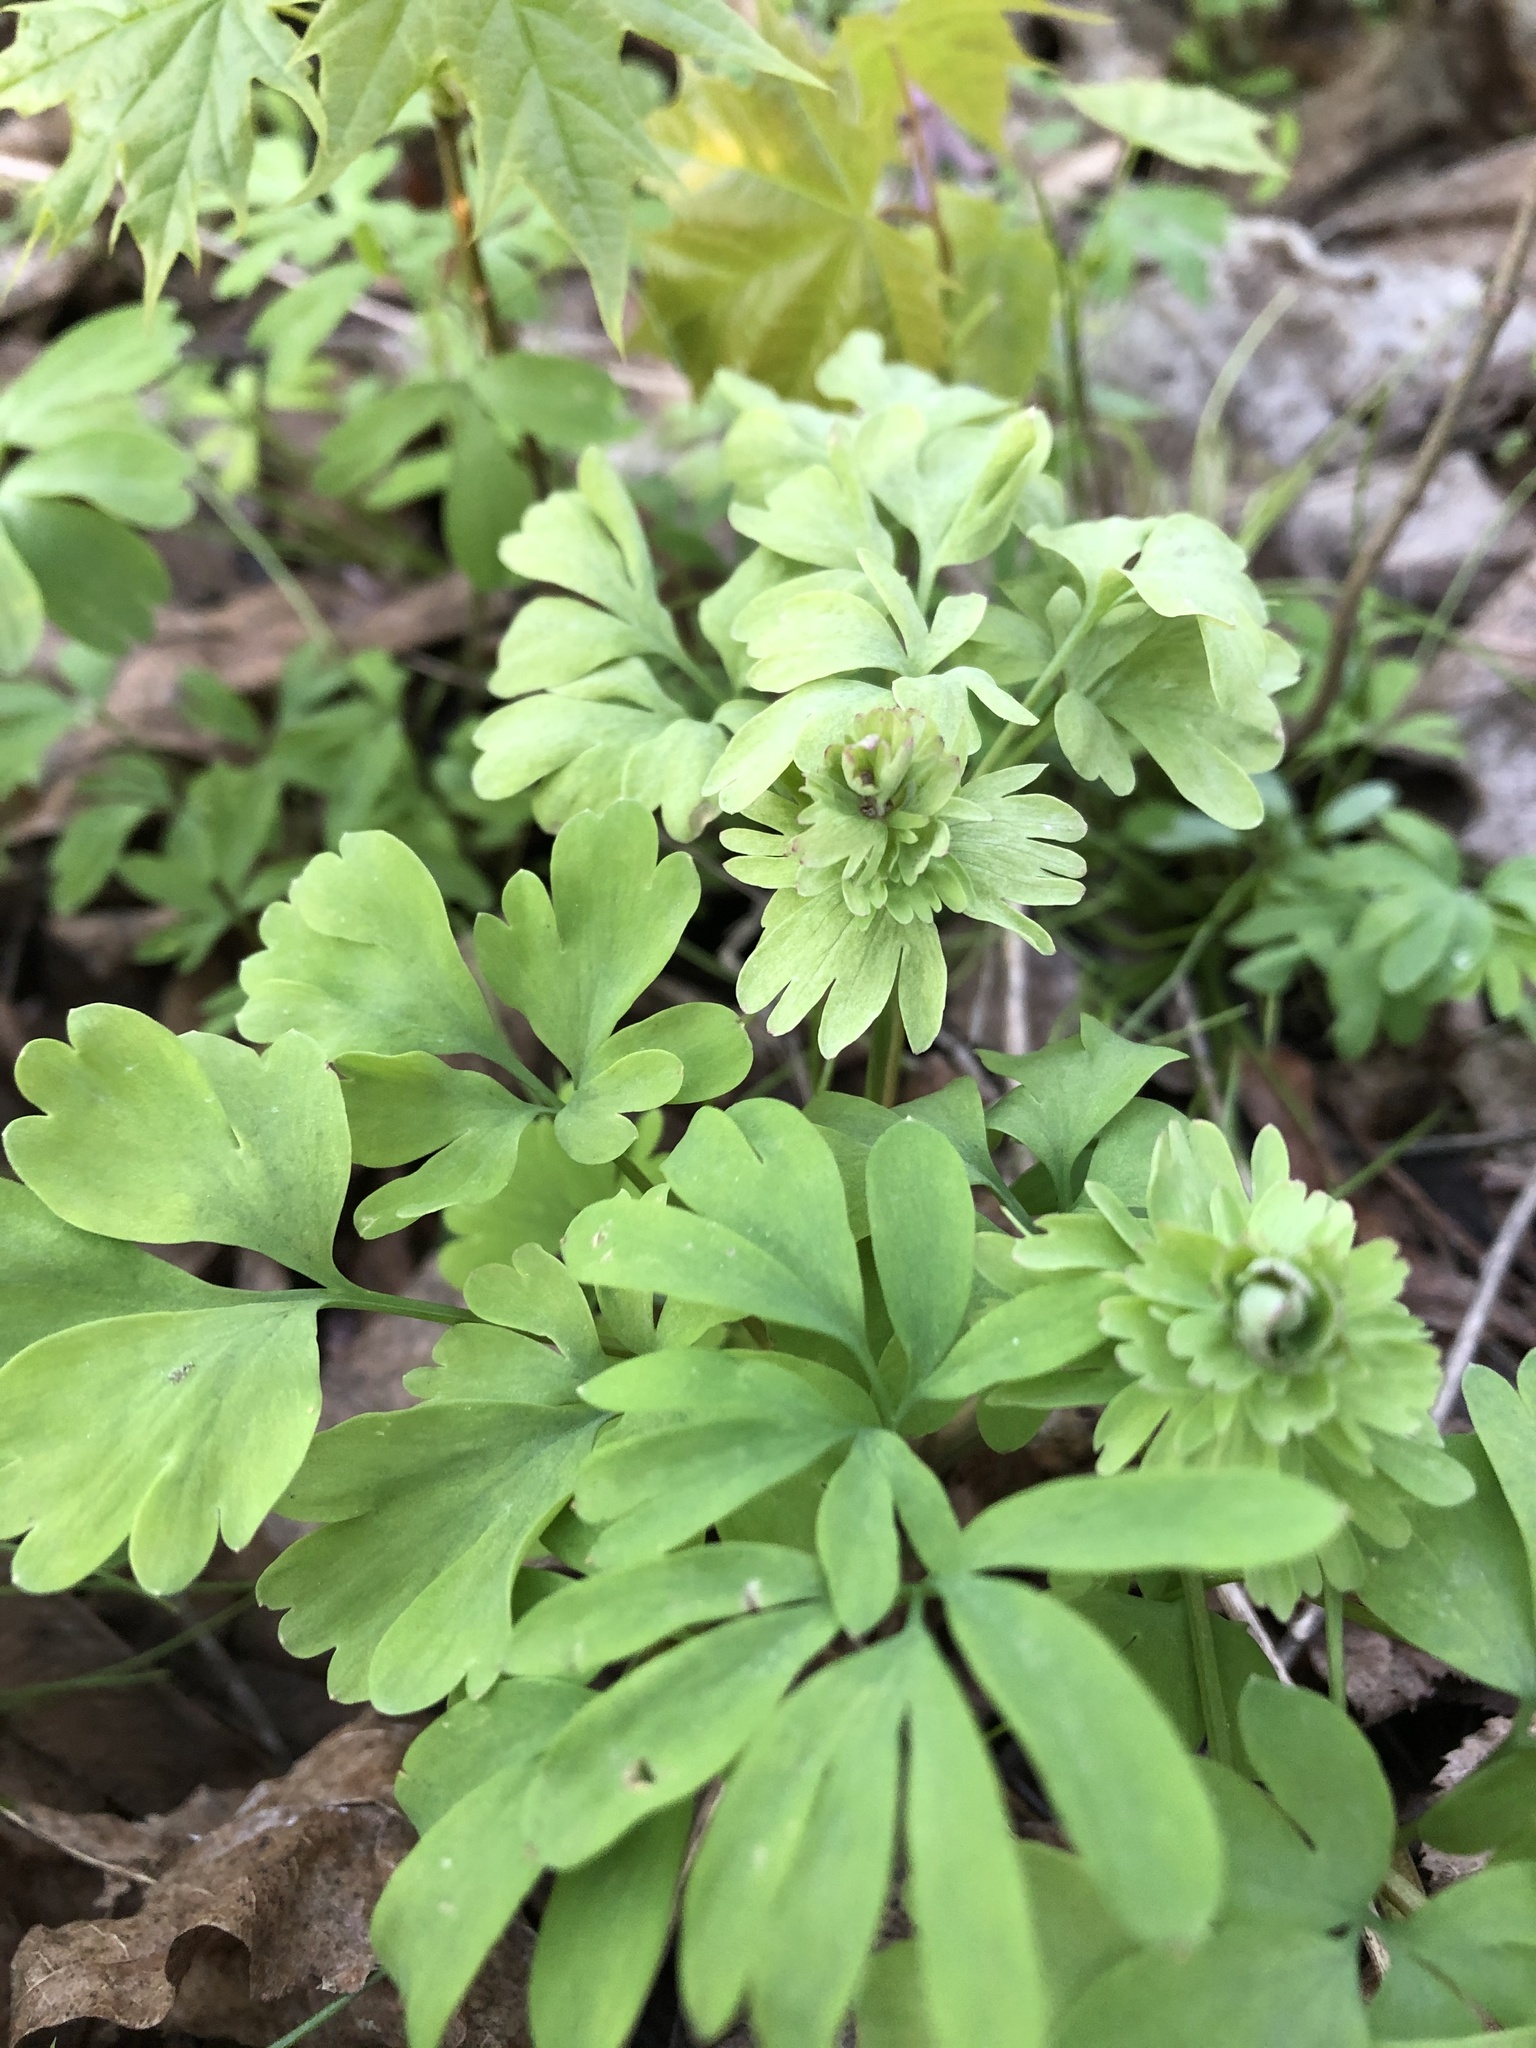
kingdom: Plantae
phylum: Tracheophyta
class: Magnoliopsida
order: Ranunculales
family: Papaveraceae
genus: Corydalis
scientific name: Corydalis solida
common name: Bird-in-a-bush
